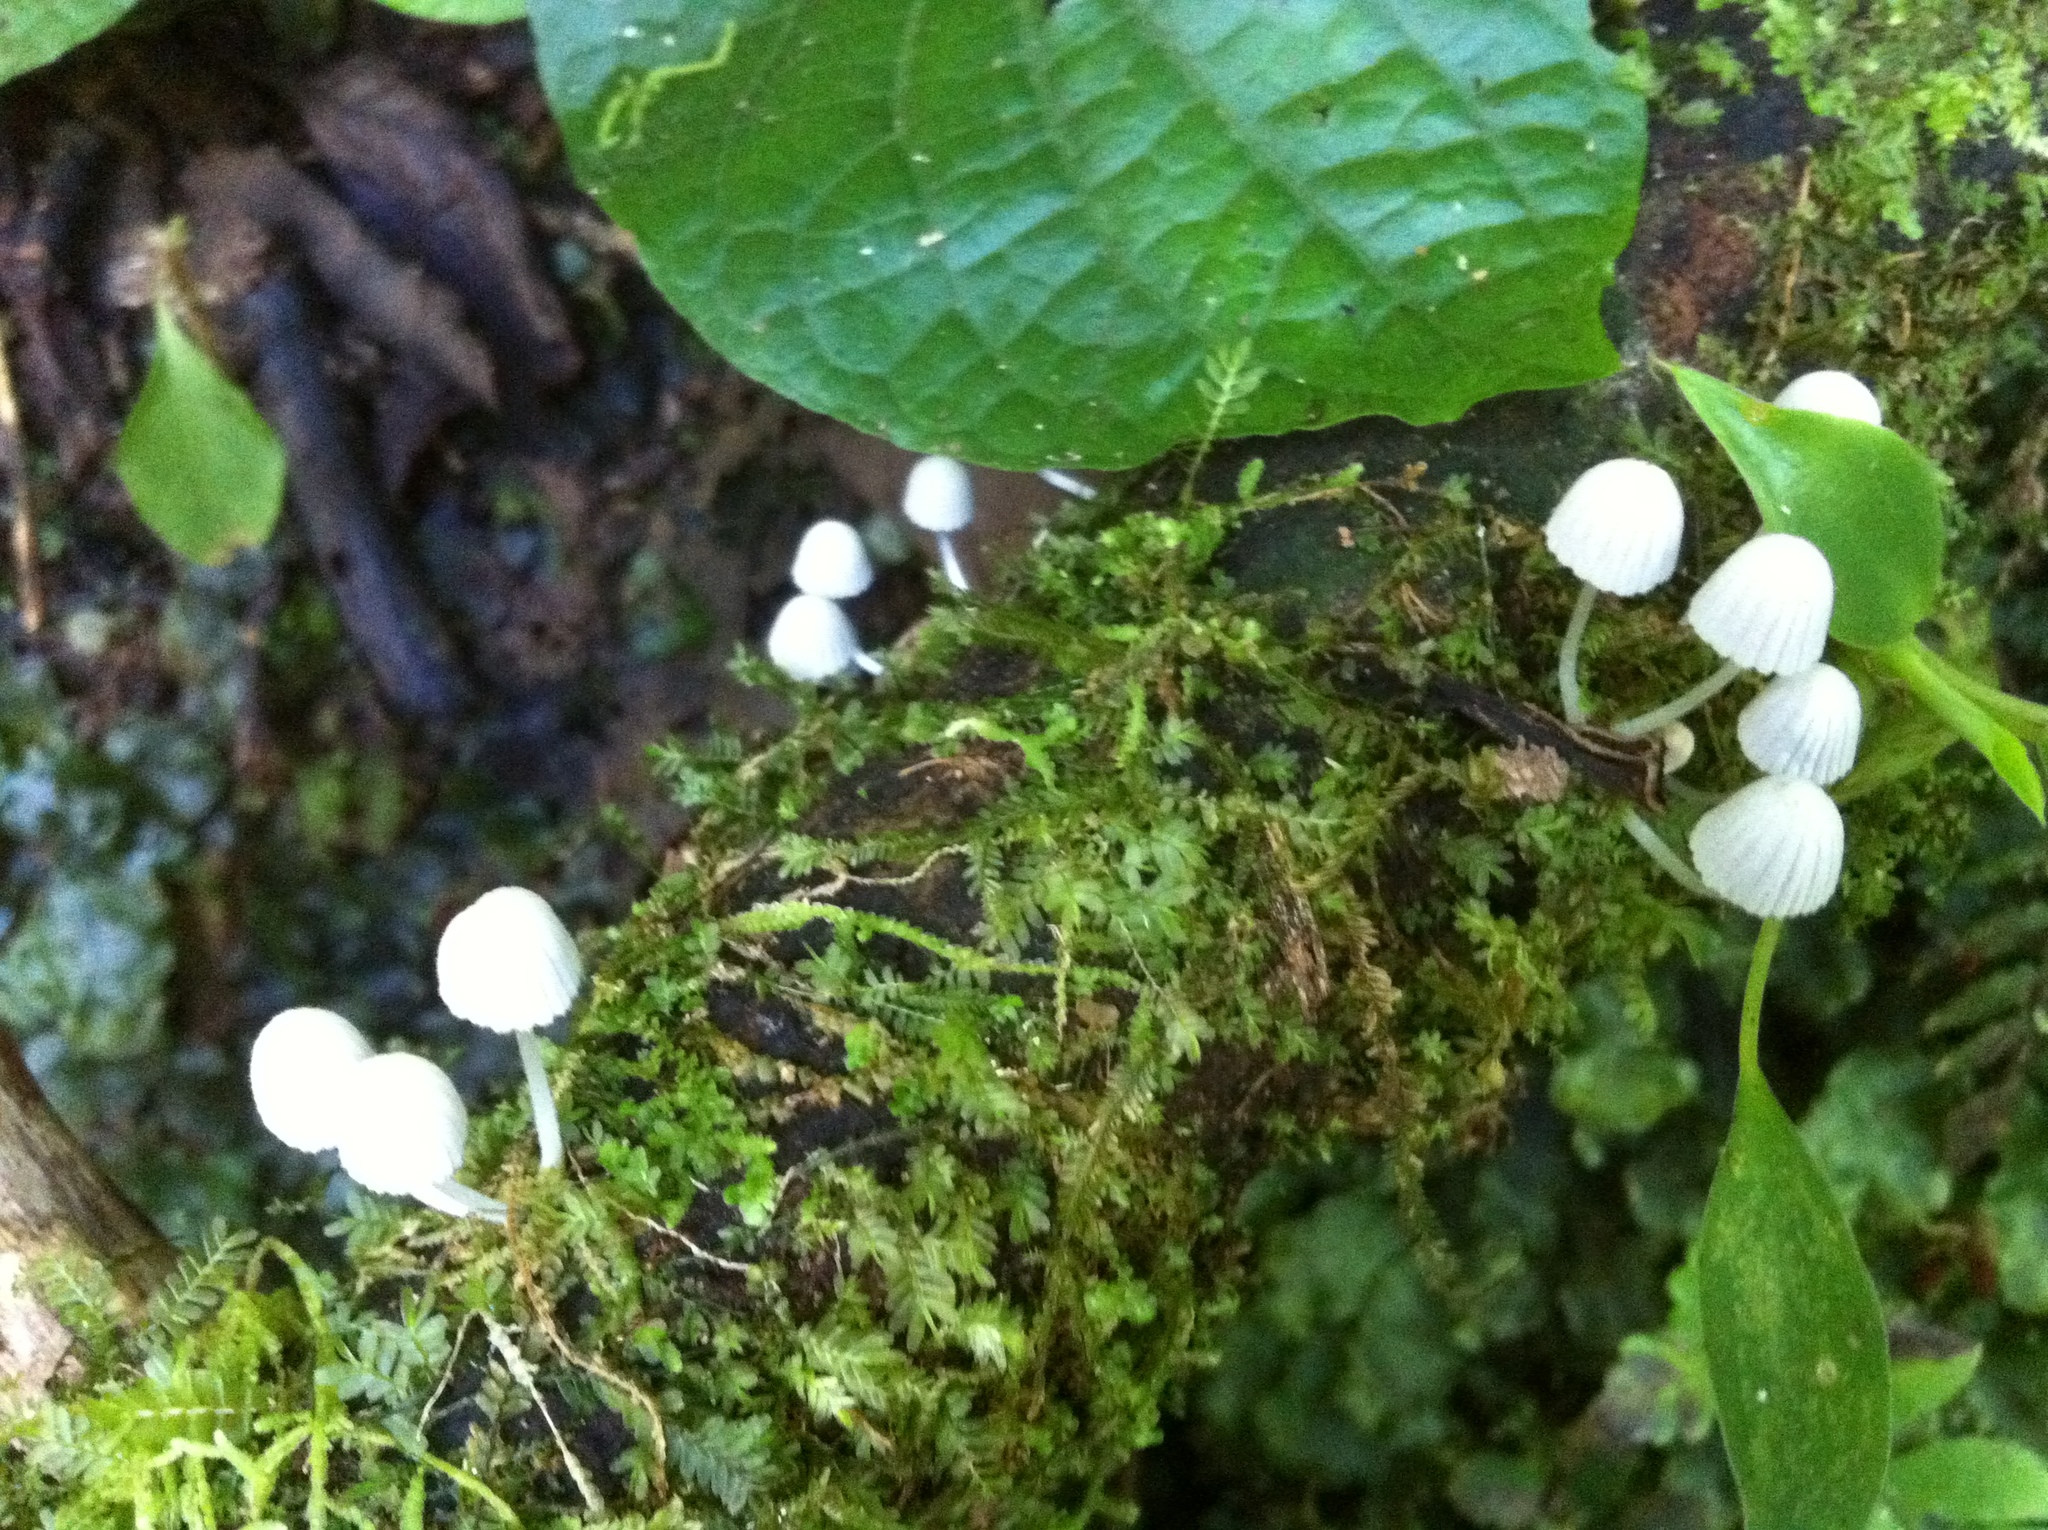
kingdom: Fungi
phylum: Basidiomycota
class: Agaricomycetes
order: Agaricales
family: Psathyrellaceae
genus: Coprinellus
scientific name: Coprinellus disseminatus
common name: Fairies' bonnets
